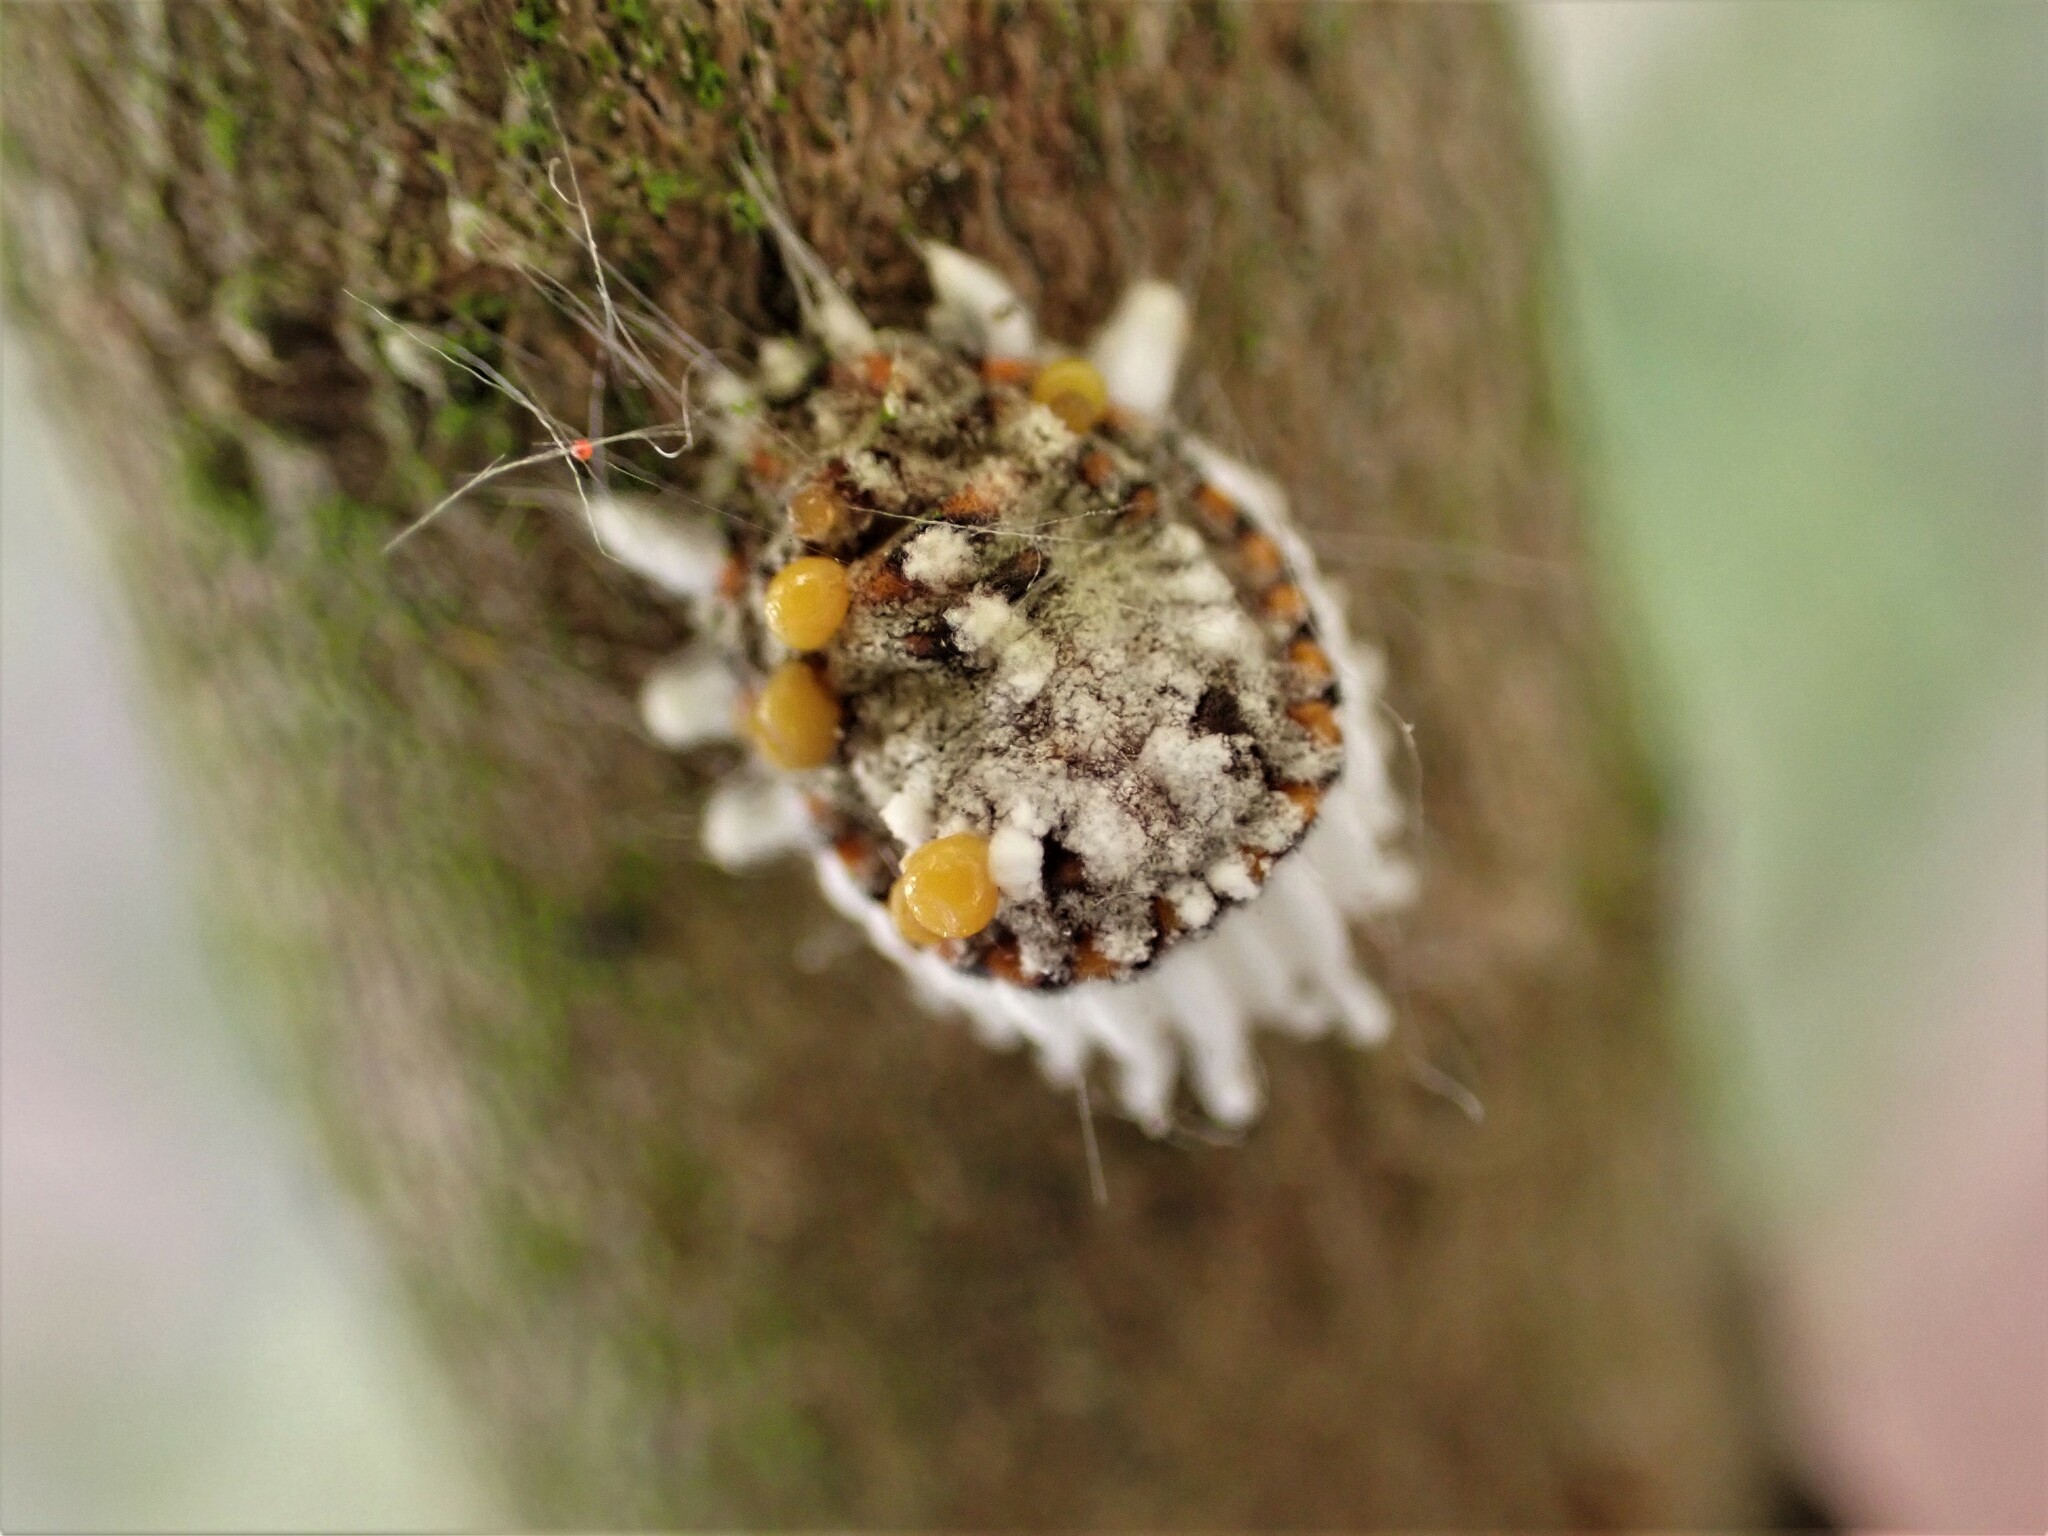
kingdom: Animalia
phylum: Arthropoda
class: Insecta
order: Hemiptera
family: Margarodidae
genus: Icerya
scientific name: Icerya purchasi
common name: Cottony cushion scale
